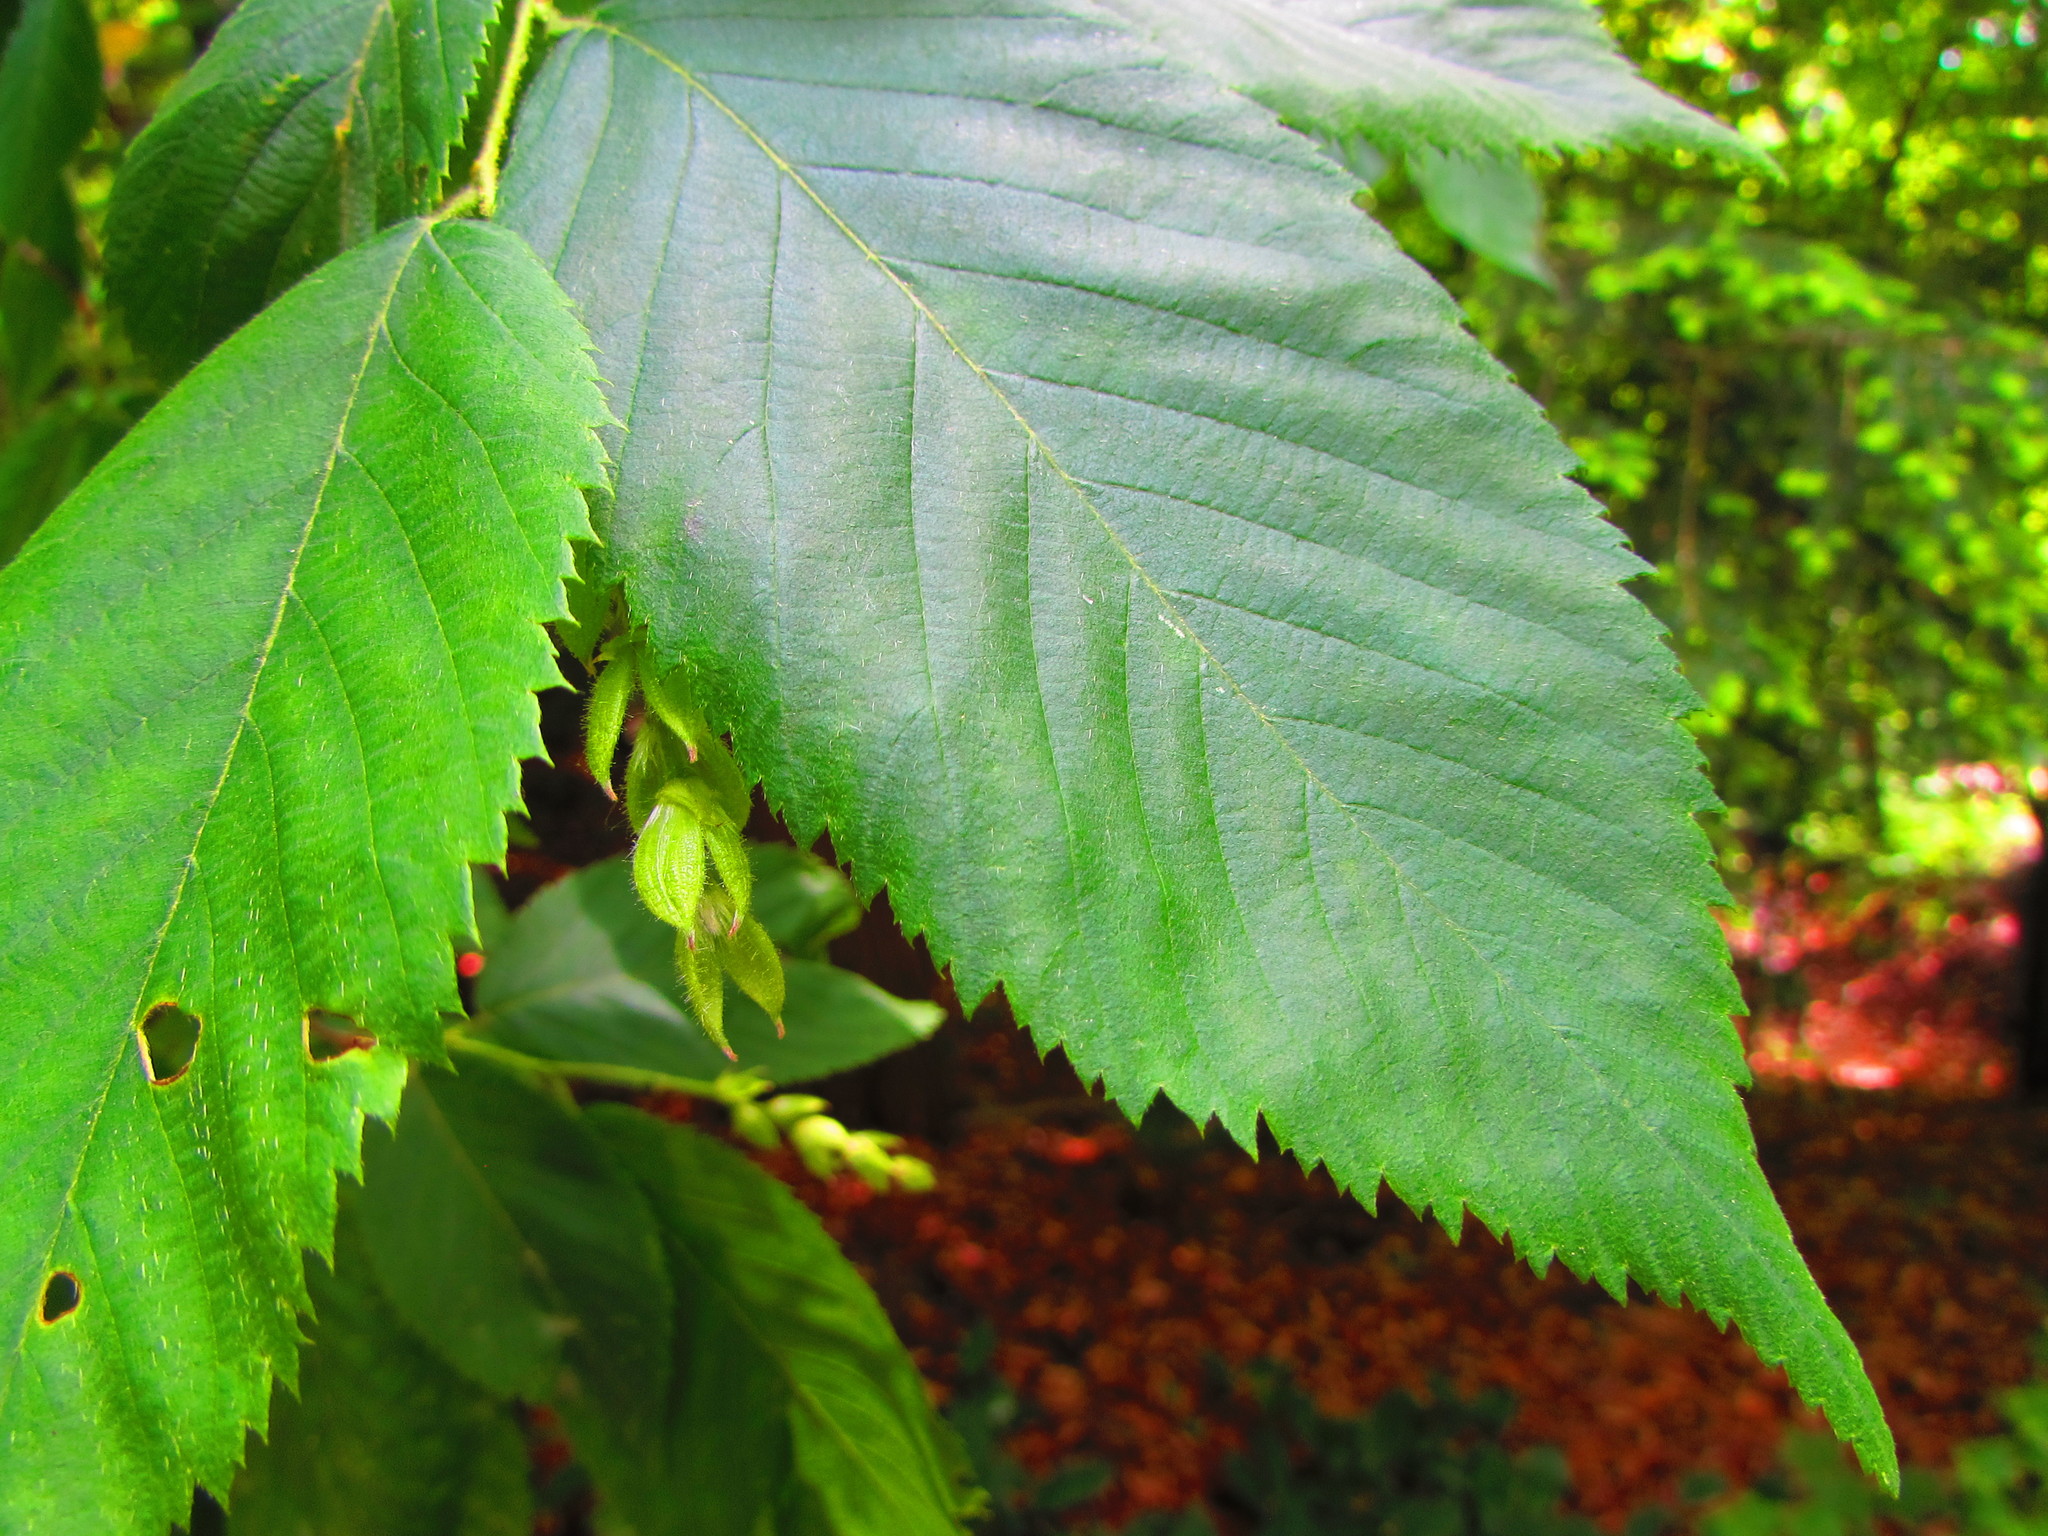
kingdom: Plantae
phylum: Tracheophyta
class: Magnoliopsida
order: Fagales
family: Betulaceae
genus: Ostrya
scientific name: Ostrya virginiana
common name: Ironwood
